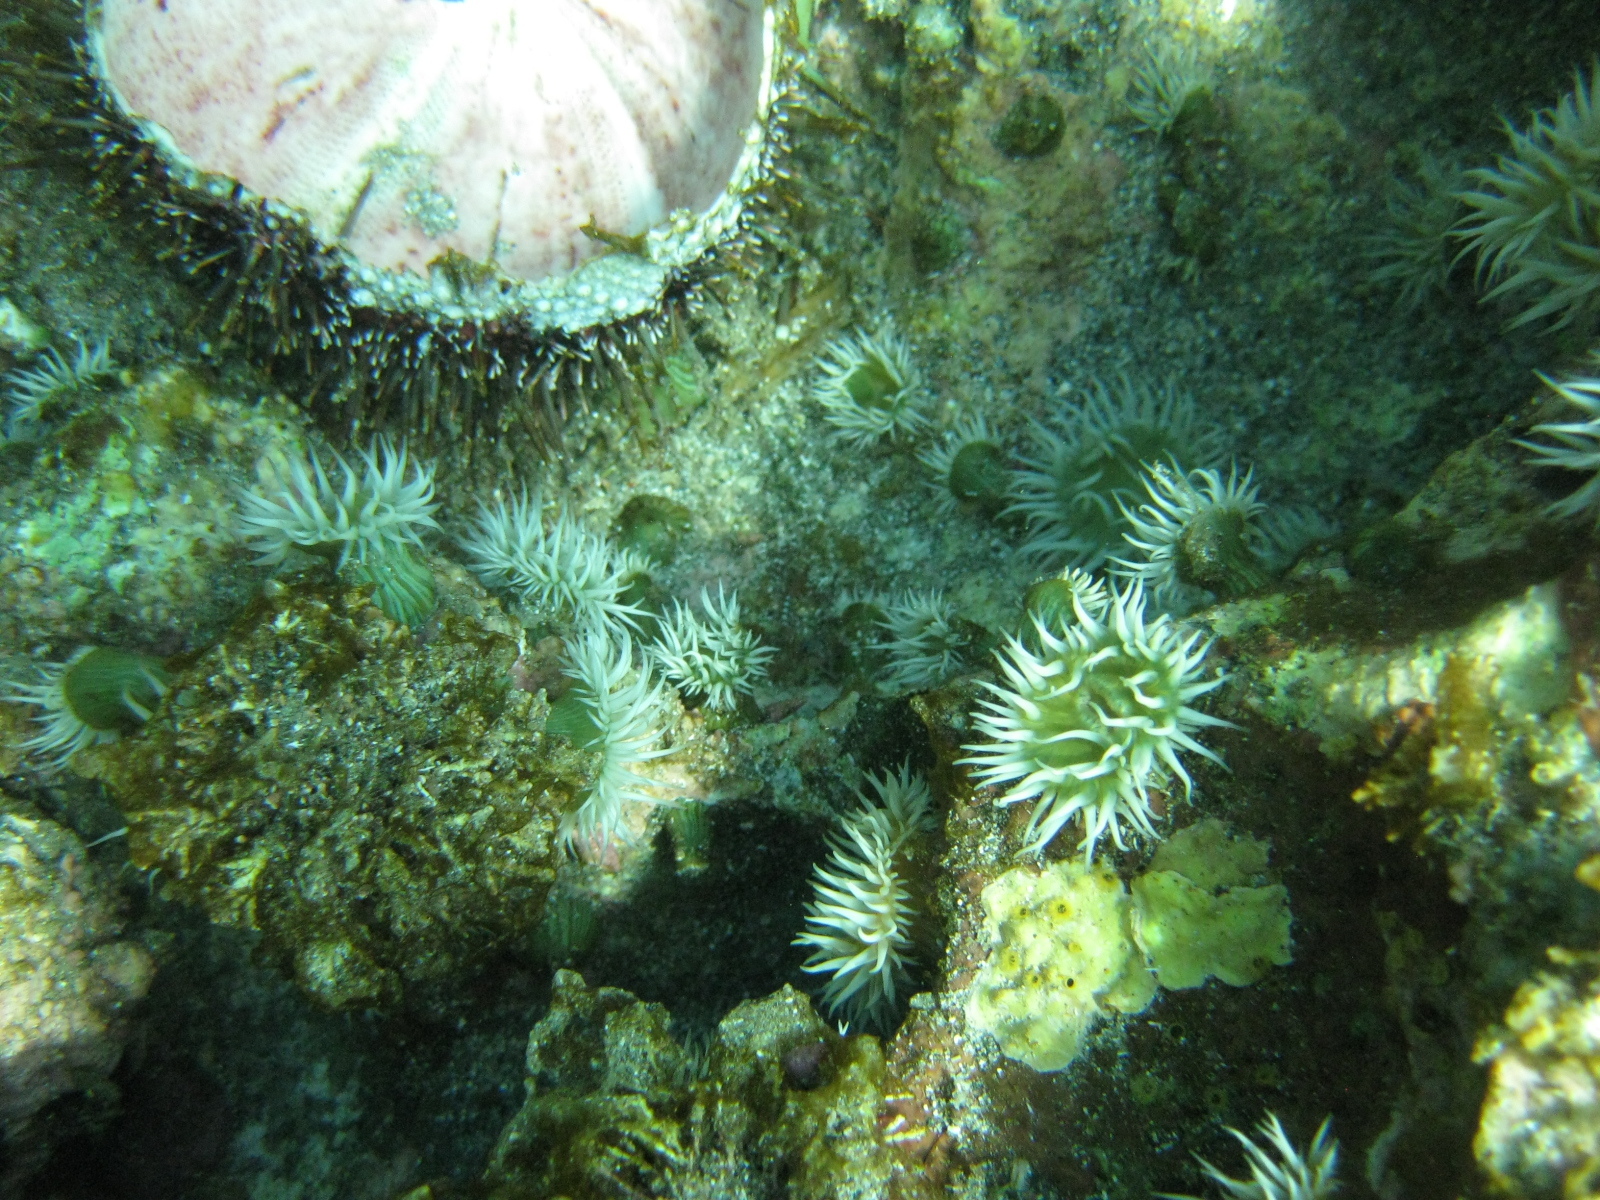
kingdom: Animalia
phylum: Cnidaria
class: Anthozoa
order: Actiniaria
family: Sagartiidae
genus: Anthothoe
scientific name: Anthothoe albocincta
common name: Orange striped anemone
